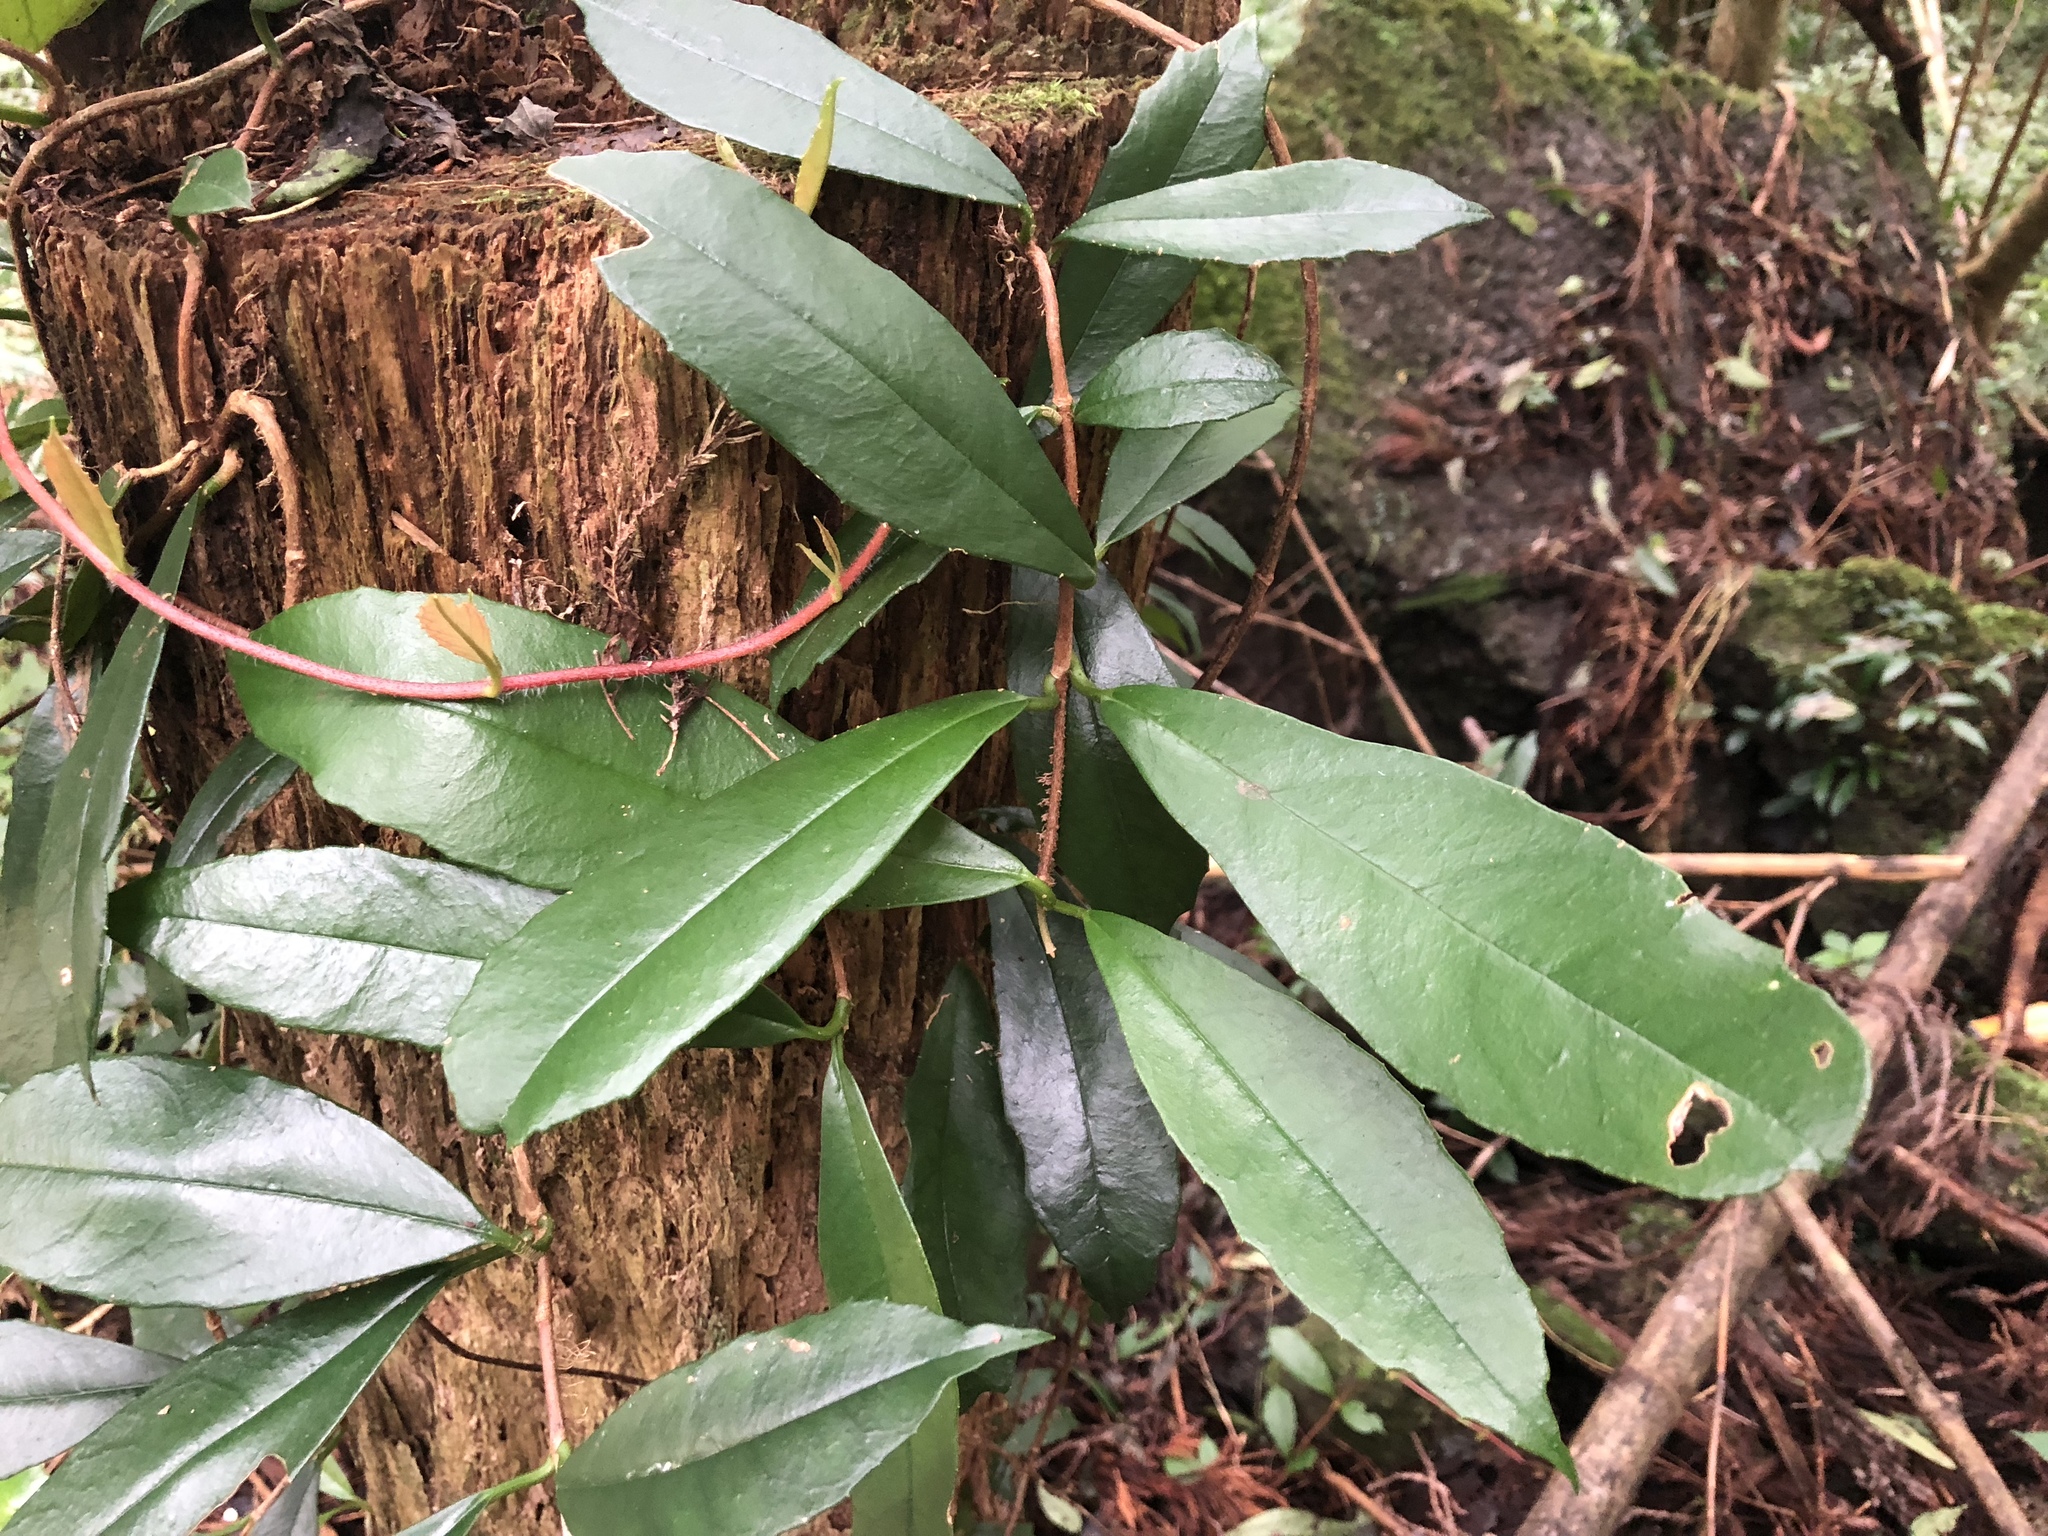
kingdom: Plantae
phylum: Tracheophyta
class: Magnoliopsida
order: Cornales
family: Hydrangeaceae
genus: Hydrangea
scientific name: Hydrangea viburnoides
